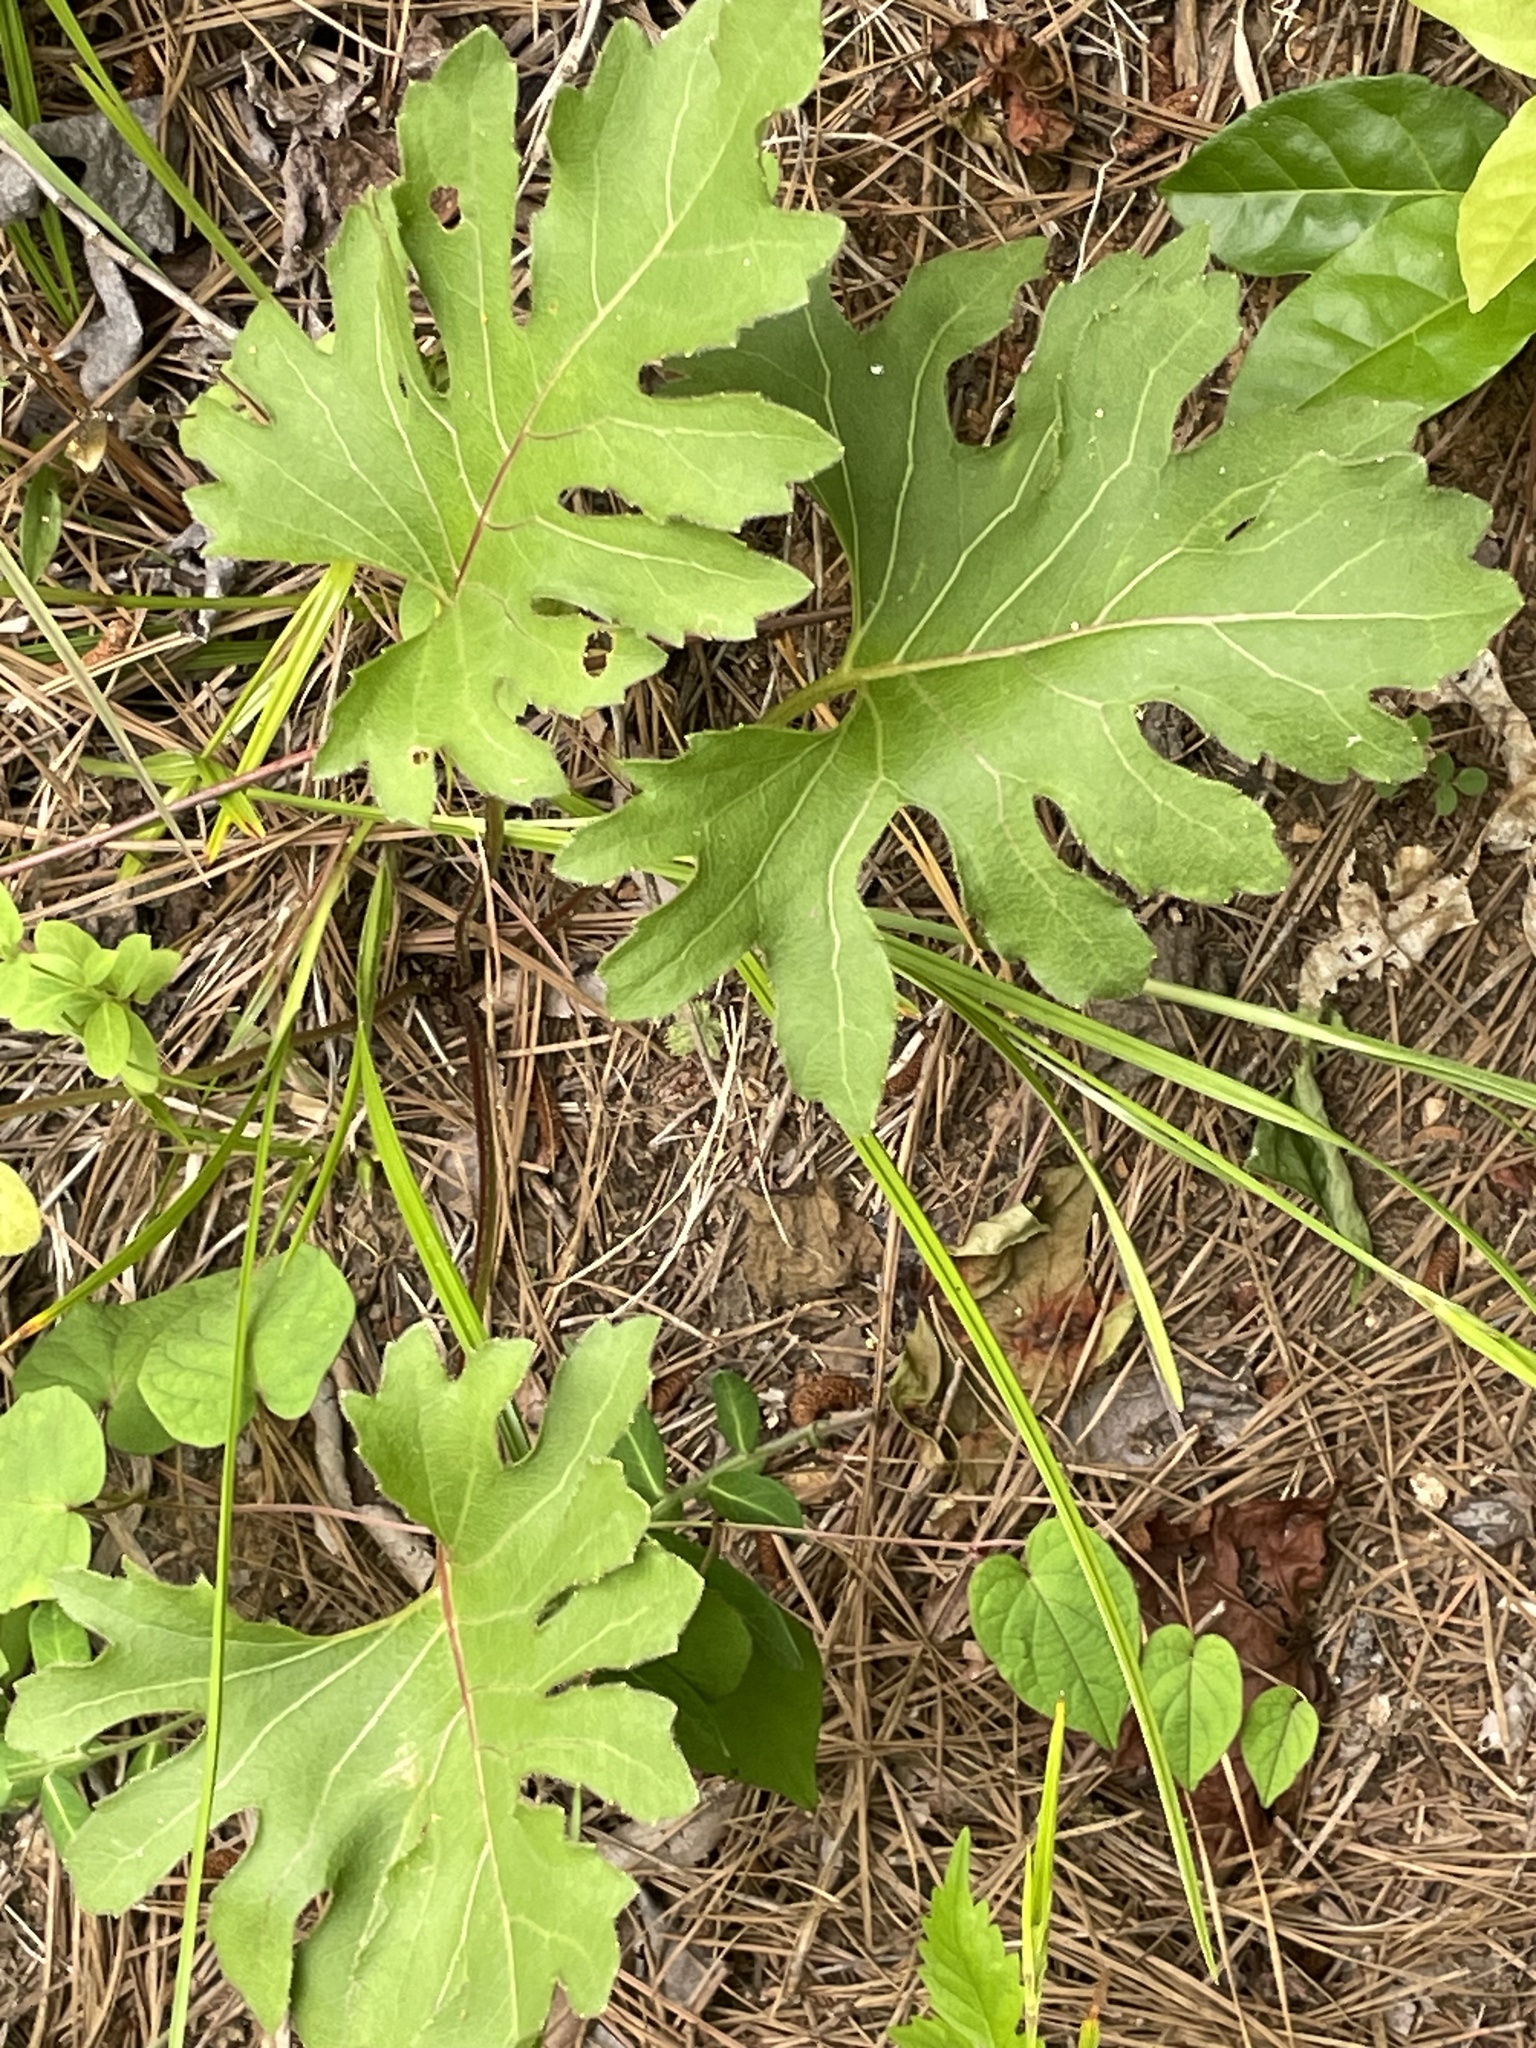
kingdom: Plantae
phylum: Tracheophyta
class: Magnoliopsida
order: Asterales
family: Asteraceae
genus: Silphium
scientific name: Silphium compositum
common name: Lesser basal-leaf rosinweed
